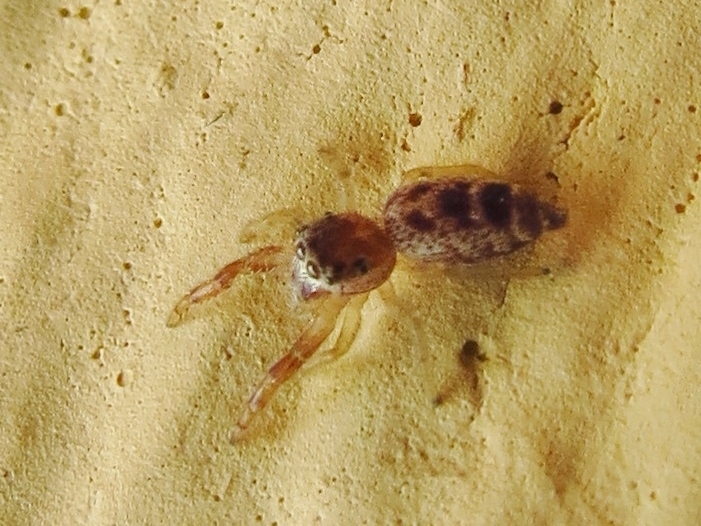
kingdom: Animalia
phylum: Arthropoda
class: Arachnida
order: Araneae
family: Salticidae
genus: Hentzia
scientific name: Hentzia palmarum
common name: Common hentz jumping spider
